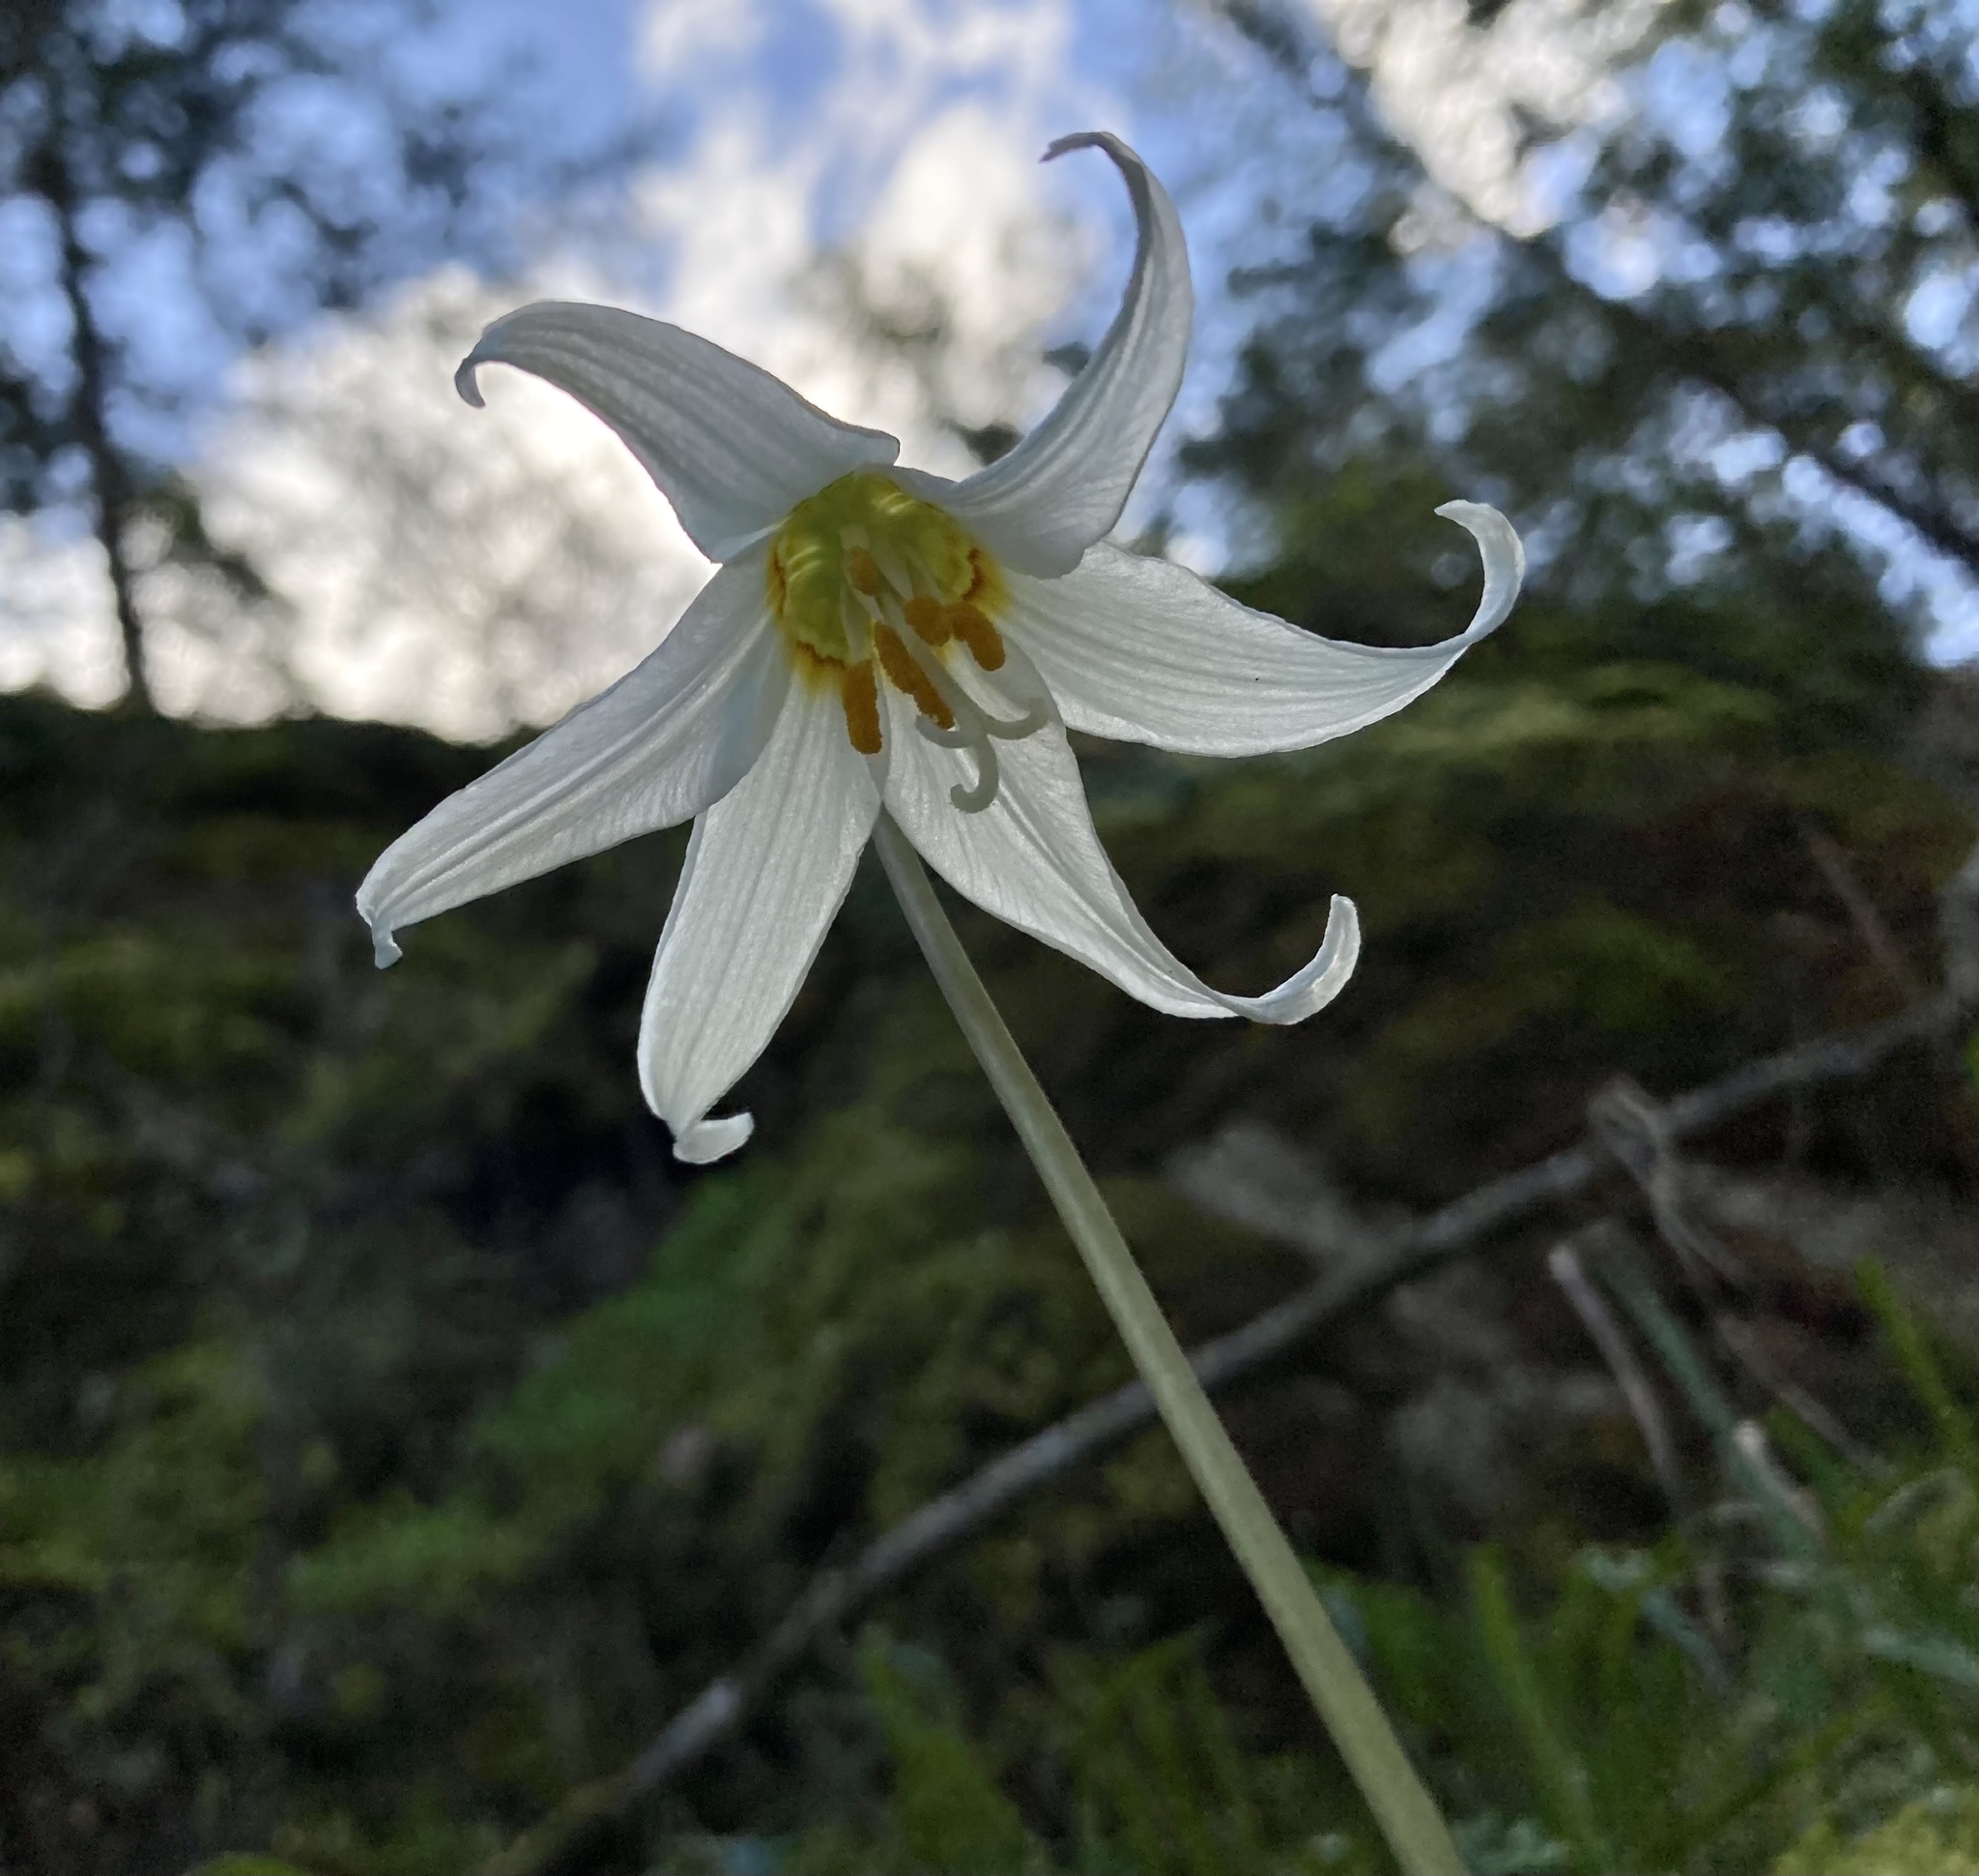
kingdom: Plantae
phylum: Tracheophyta
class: Liliopsida
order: Liliales
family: Liliaceae
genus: Erythronium
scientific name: Erythronium oregonum
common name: Giant adder's-tongue
